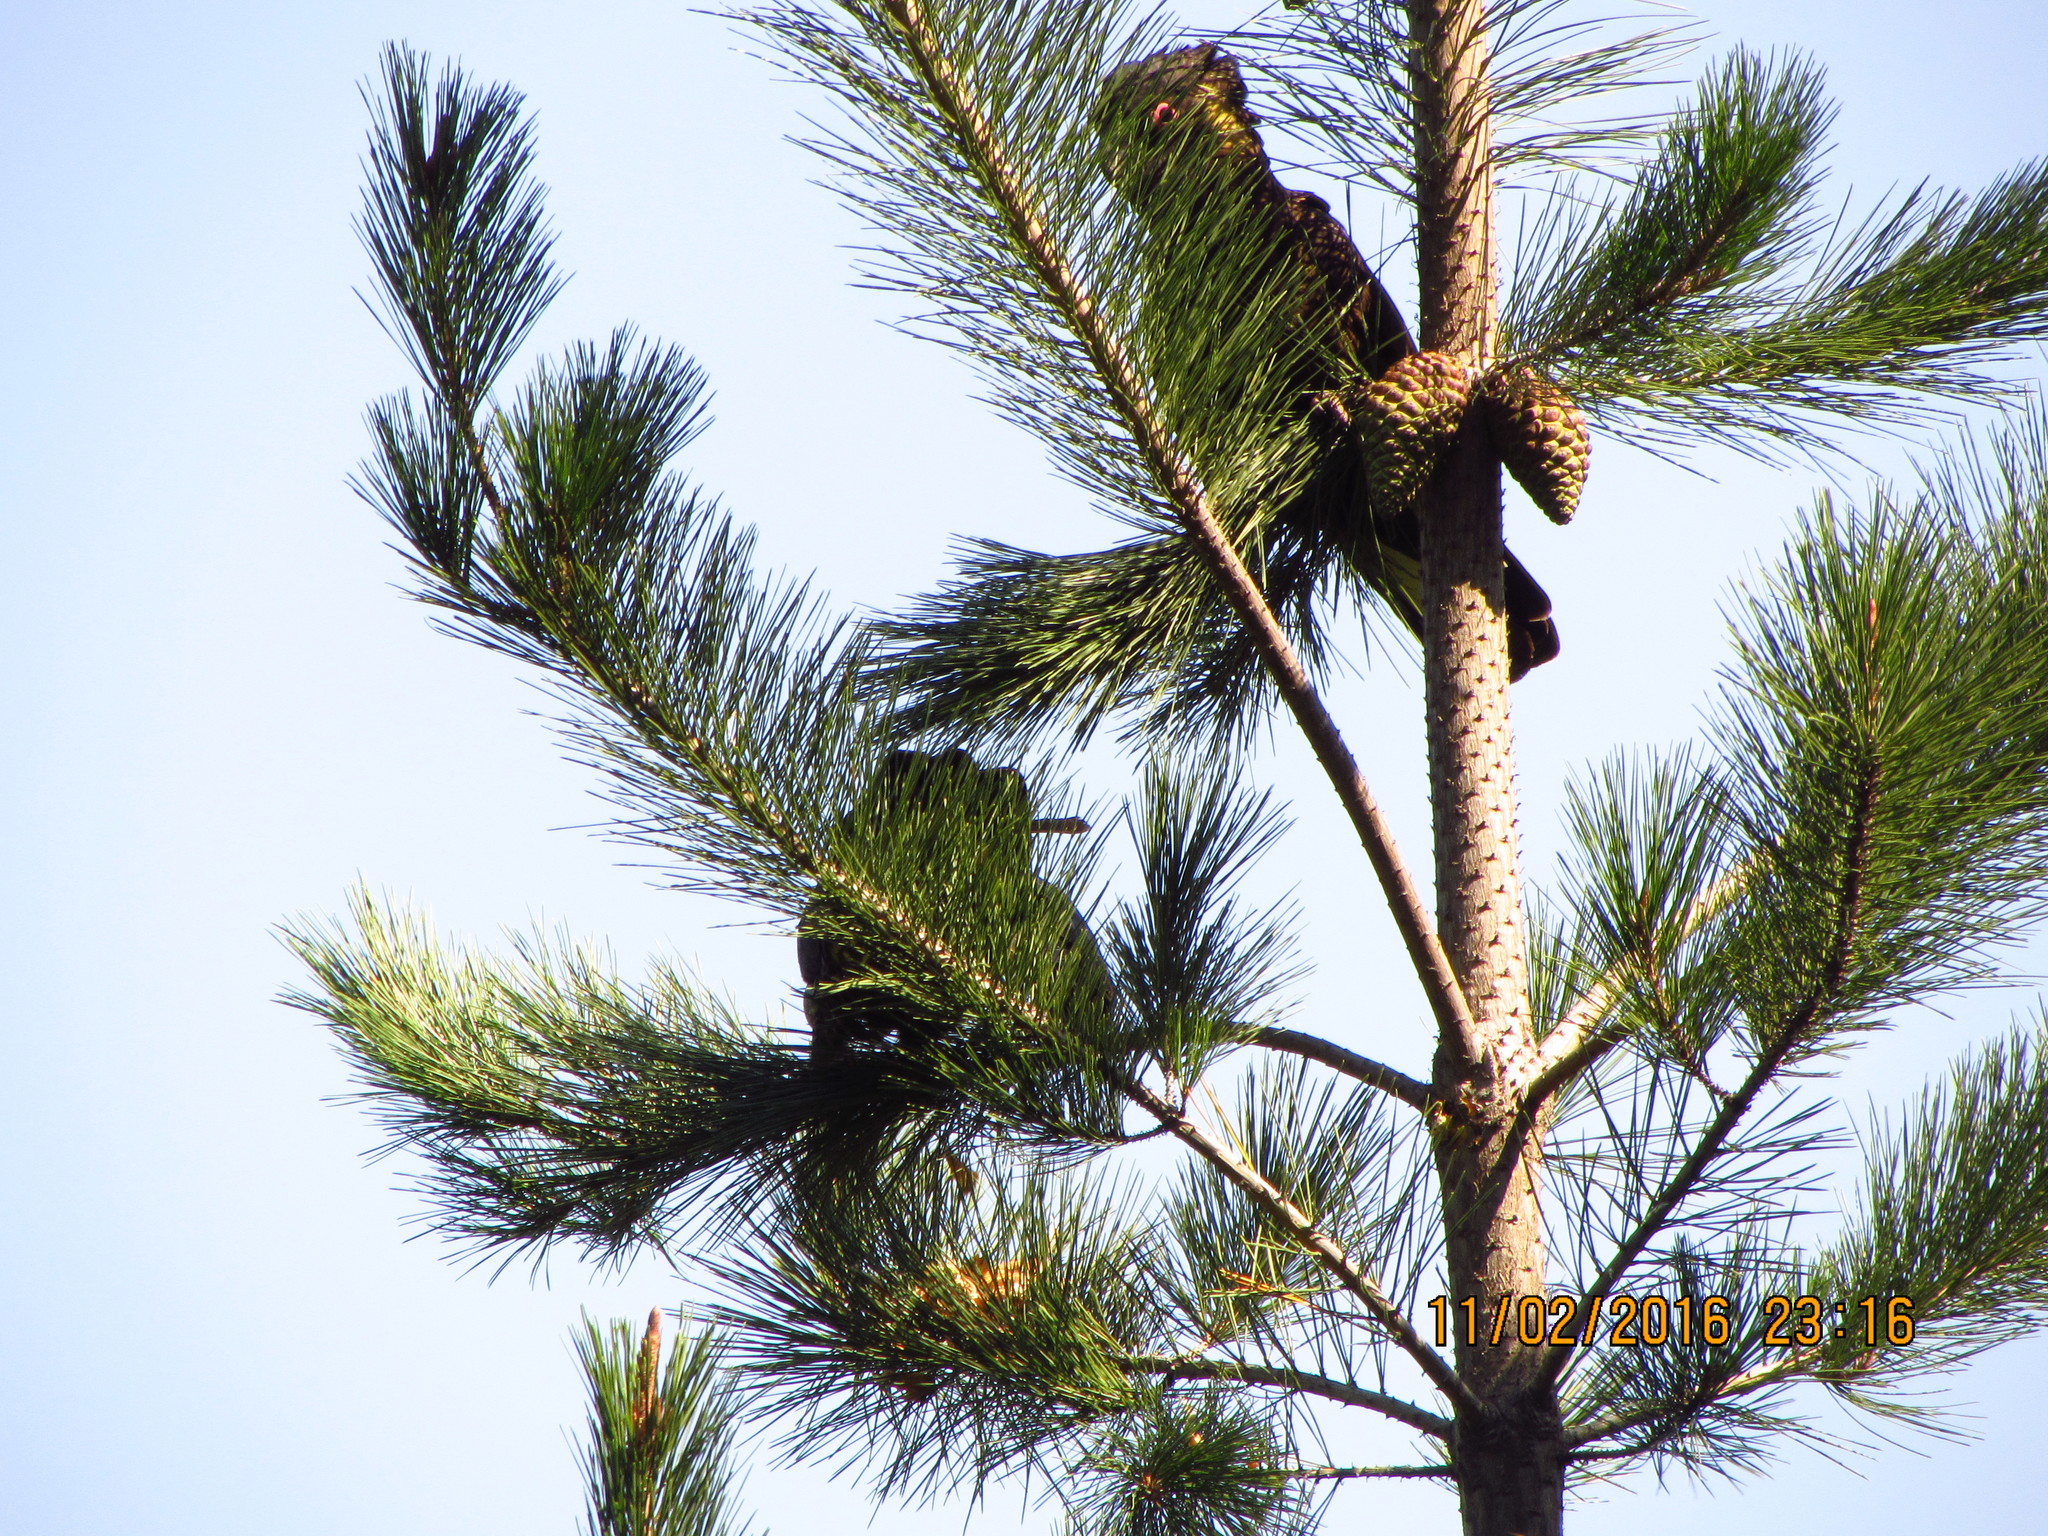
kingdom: Animalia
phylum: Chordata
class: Aves
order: Psittaciformes
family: Cacatuidae
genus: Zanda
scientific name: Zanda funerea
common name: Yellow-tailed black-cockatoo
